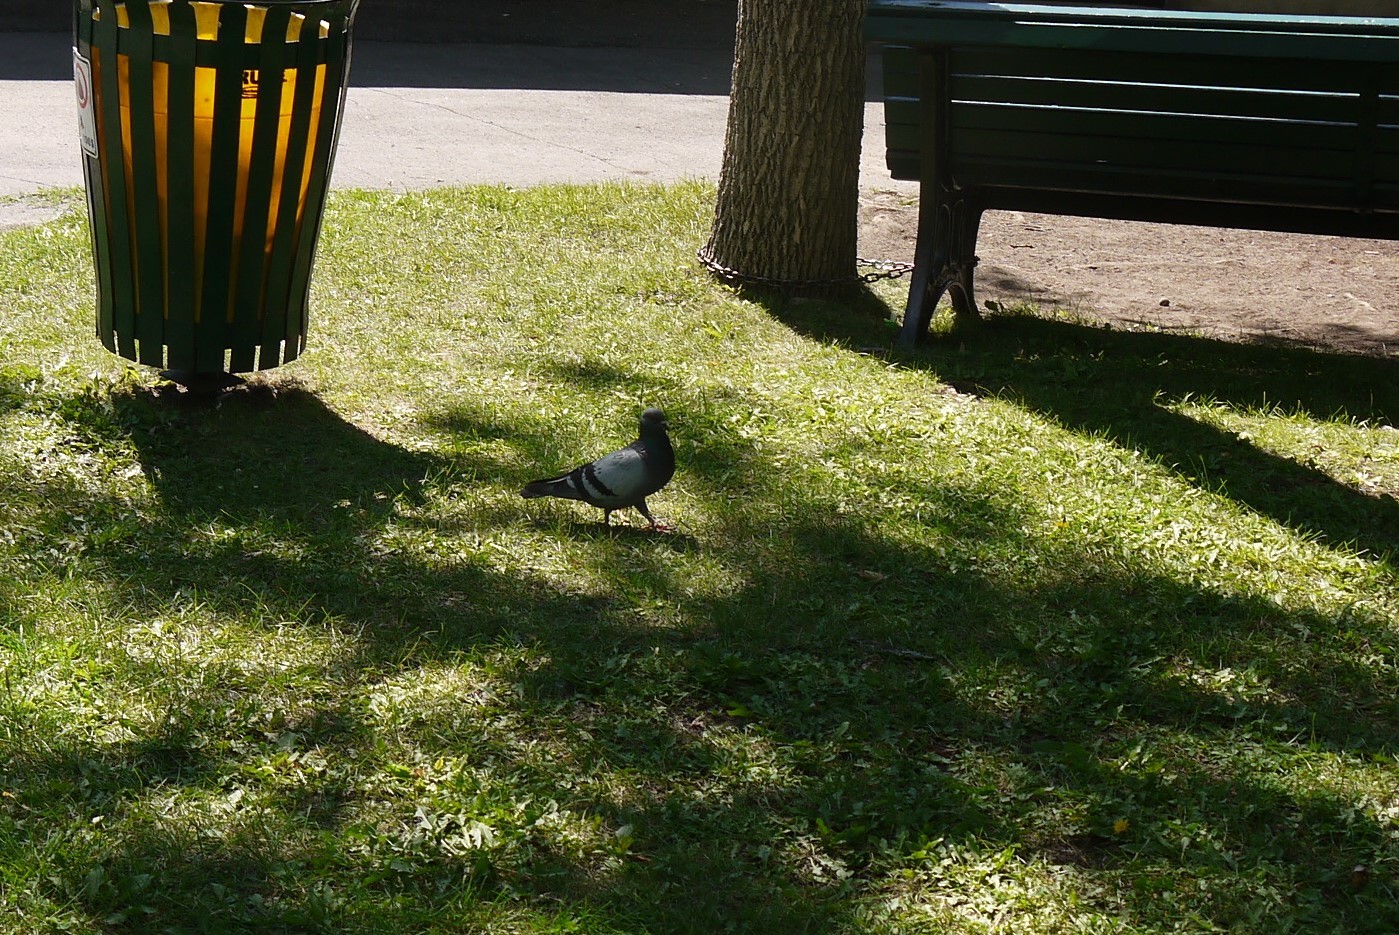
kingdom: Animalia
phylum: Chordata
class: Aves
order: Columbiformes
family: Columbidae
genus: Columba
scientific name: Columba livia
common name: Rock pigeon
